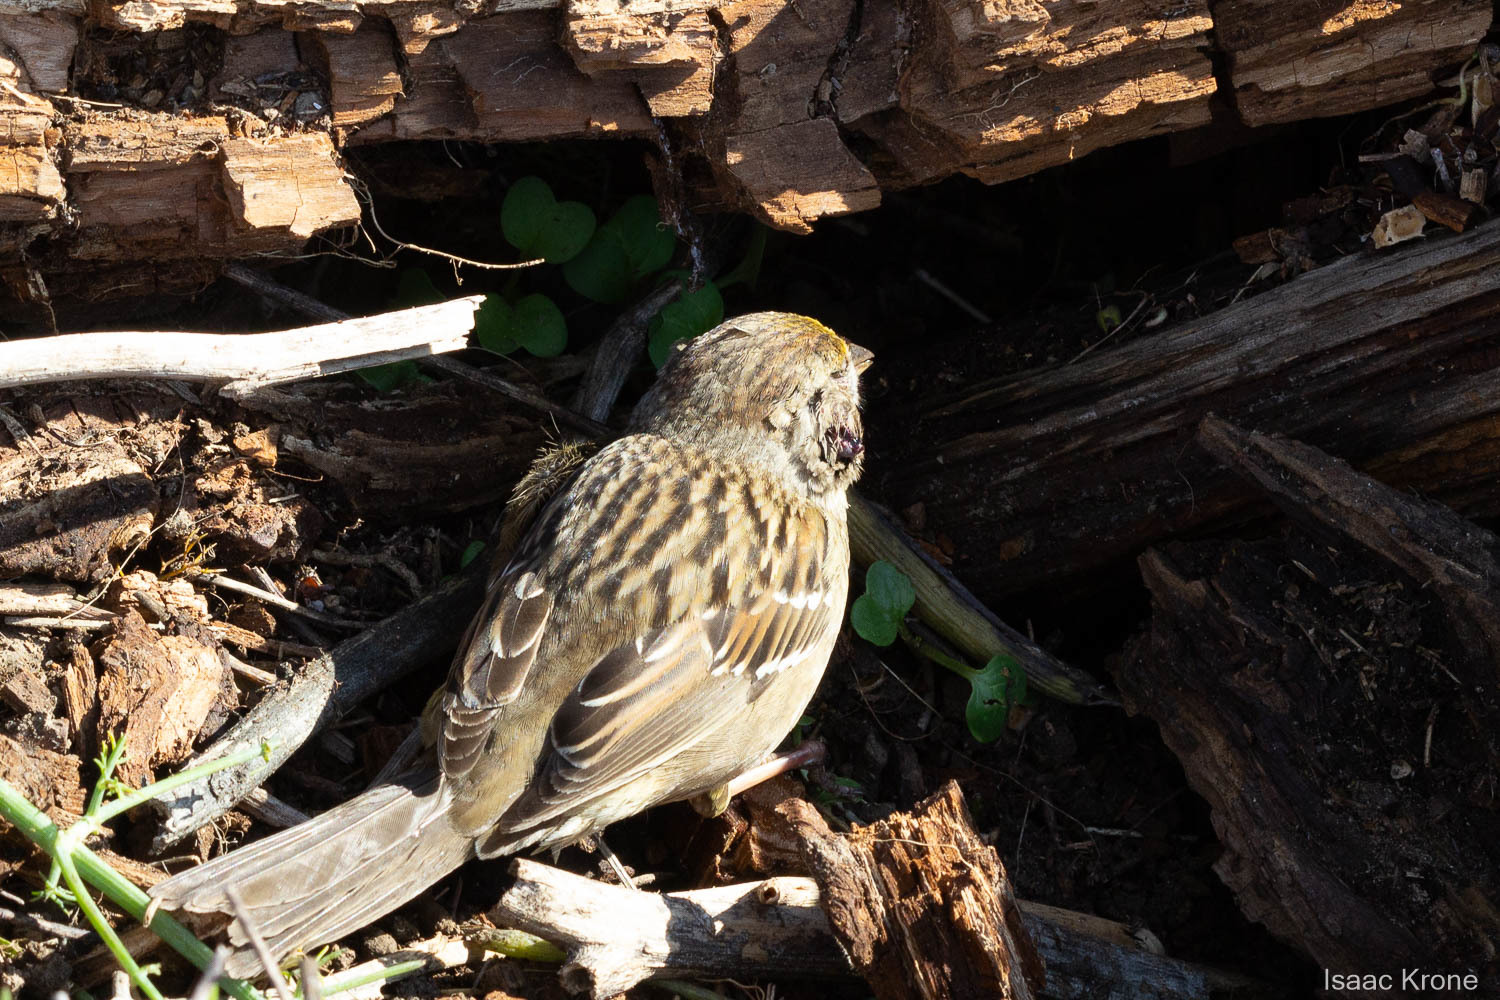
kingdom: Animalia
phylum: Chordata
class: Aves
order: Passeriformes
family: Passerellidae
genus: Zonotrichia
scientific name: Zonotrichia atricapilla
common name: Golden-crowned sparrow
